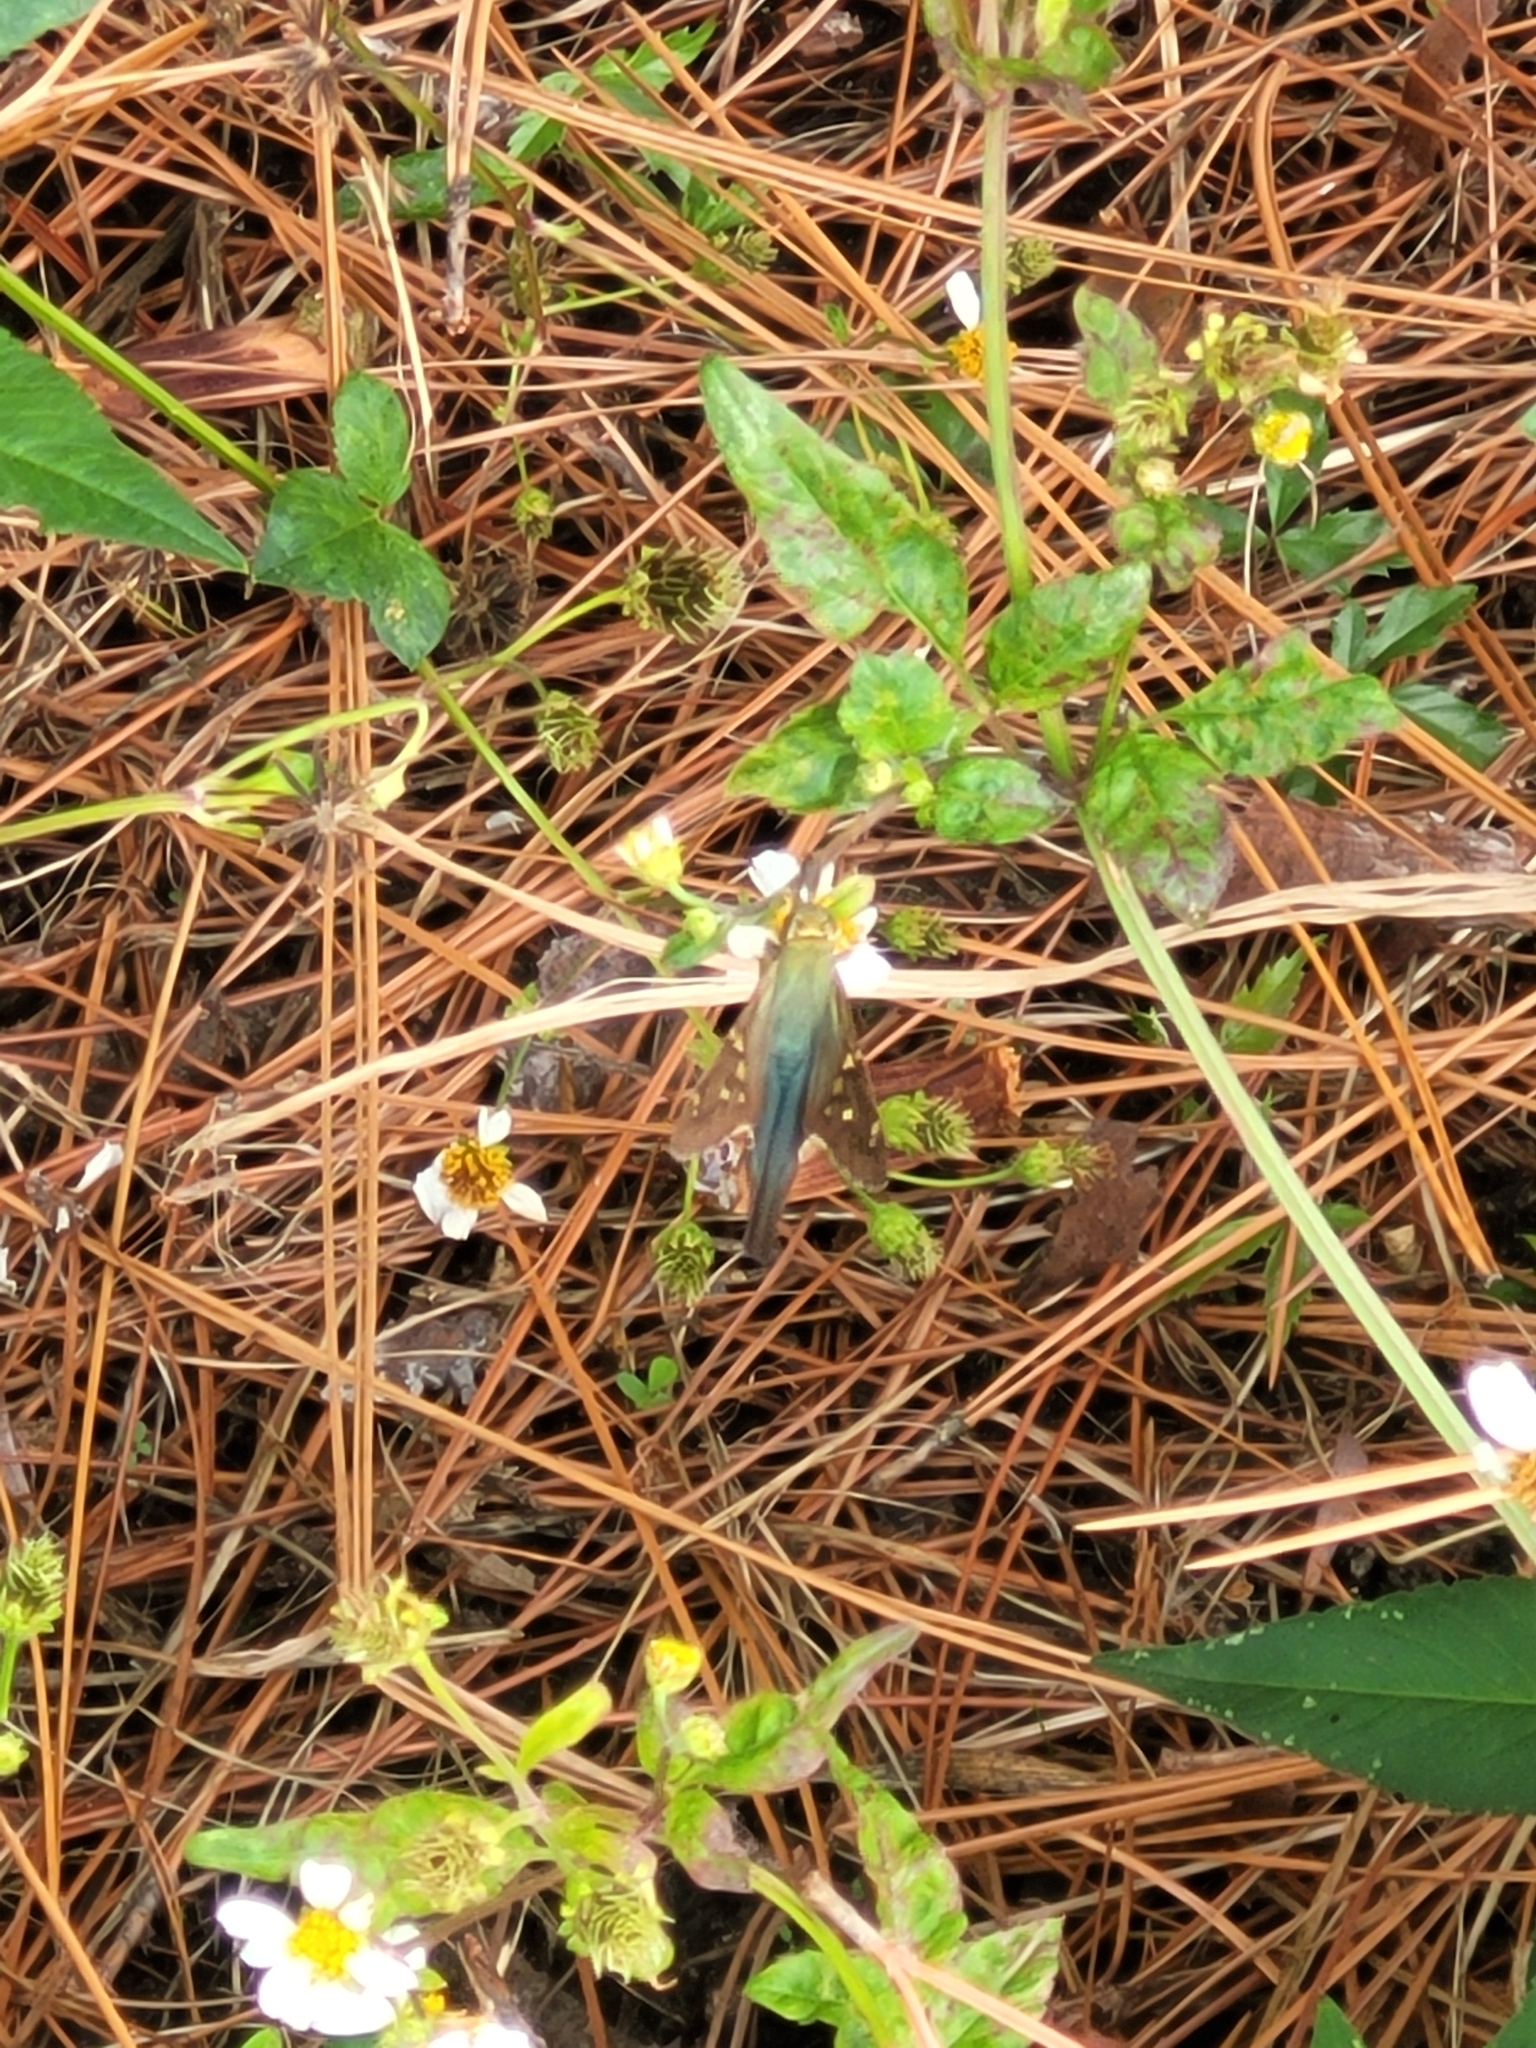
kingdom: Animalia
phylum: Arthropoda
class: Insecta
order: Lepidoptera
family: Hesperiidae
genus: Urbanus
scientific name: Urbanus proteus
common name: Long-tailed skipper
